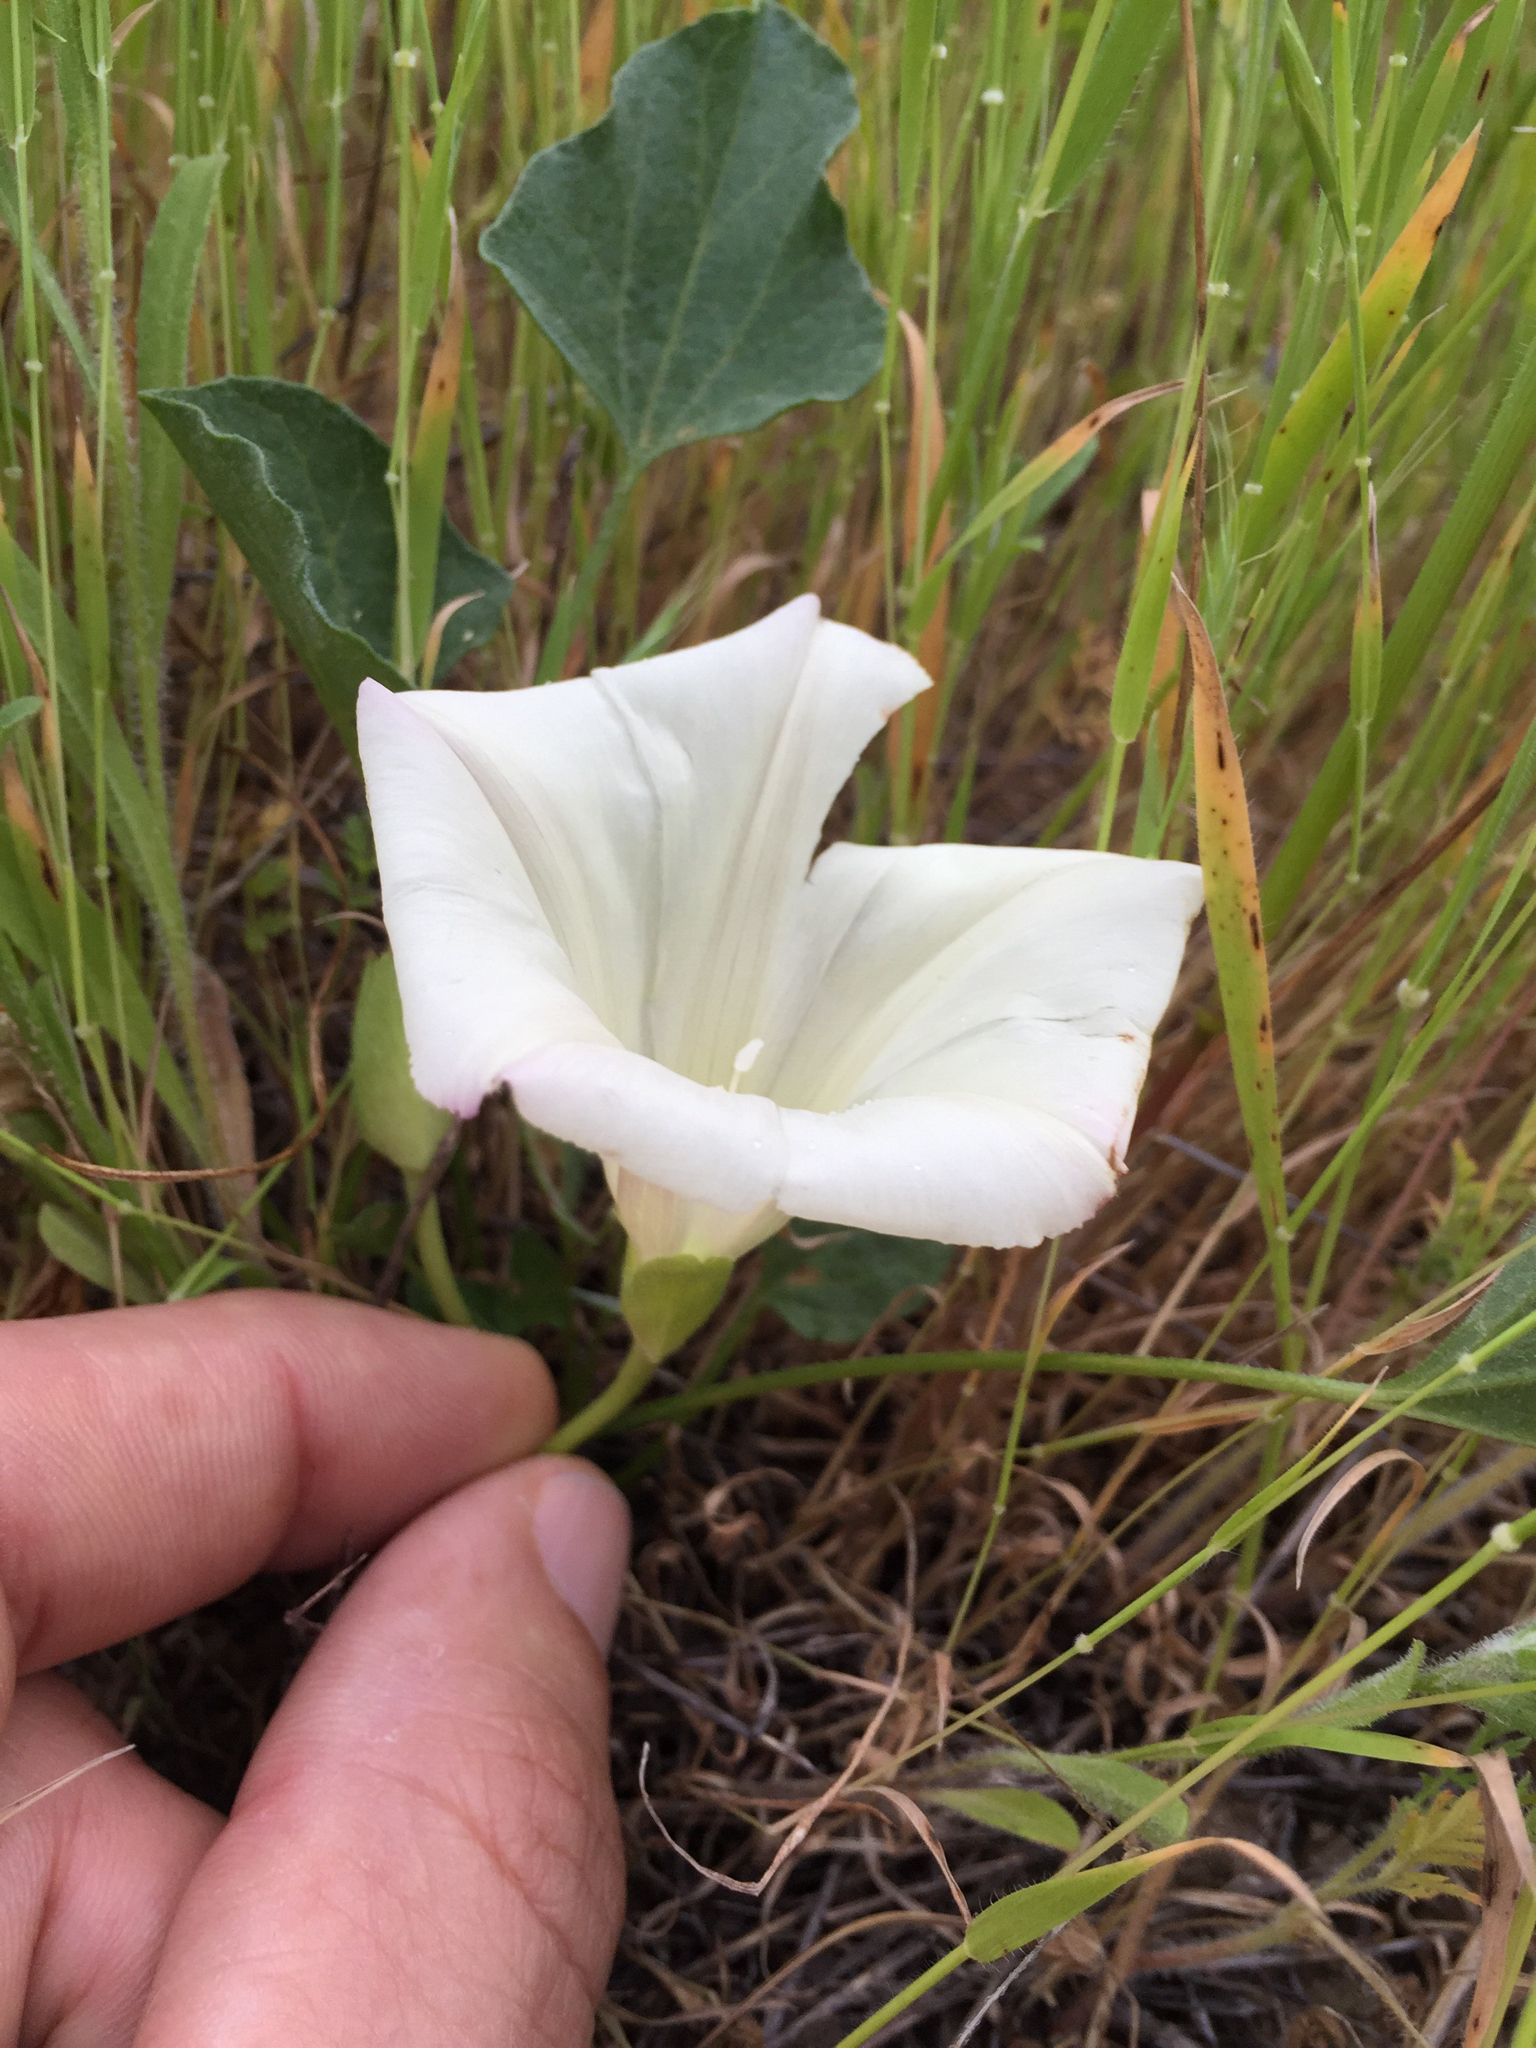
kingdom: Plantae
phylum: Tracheophyta
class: Magnoliopsida
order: Solanales
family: Convolvulaceae
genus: Calystegia
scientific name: Calystegia subacaulis
